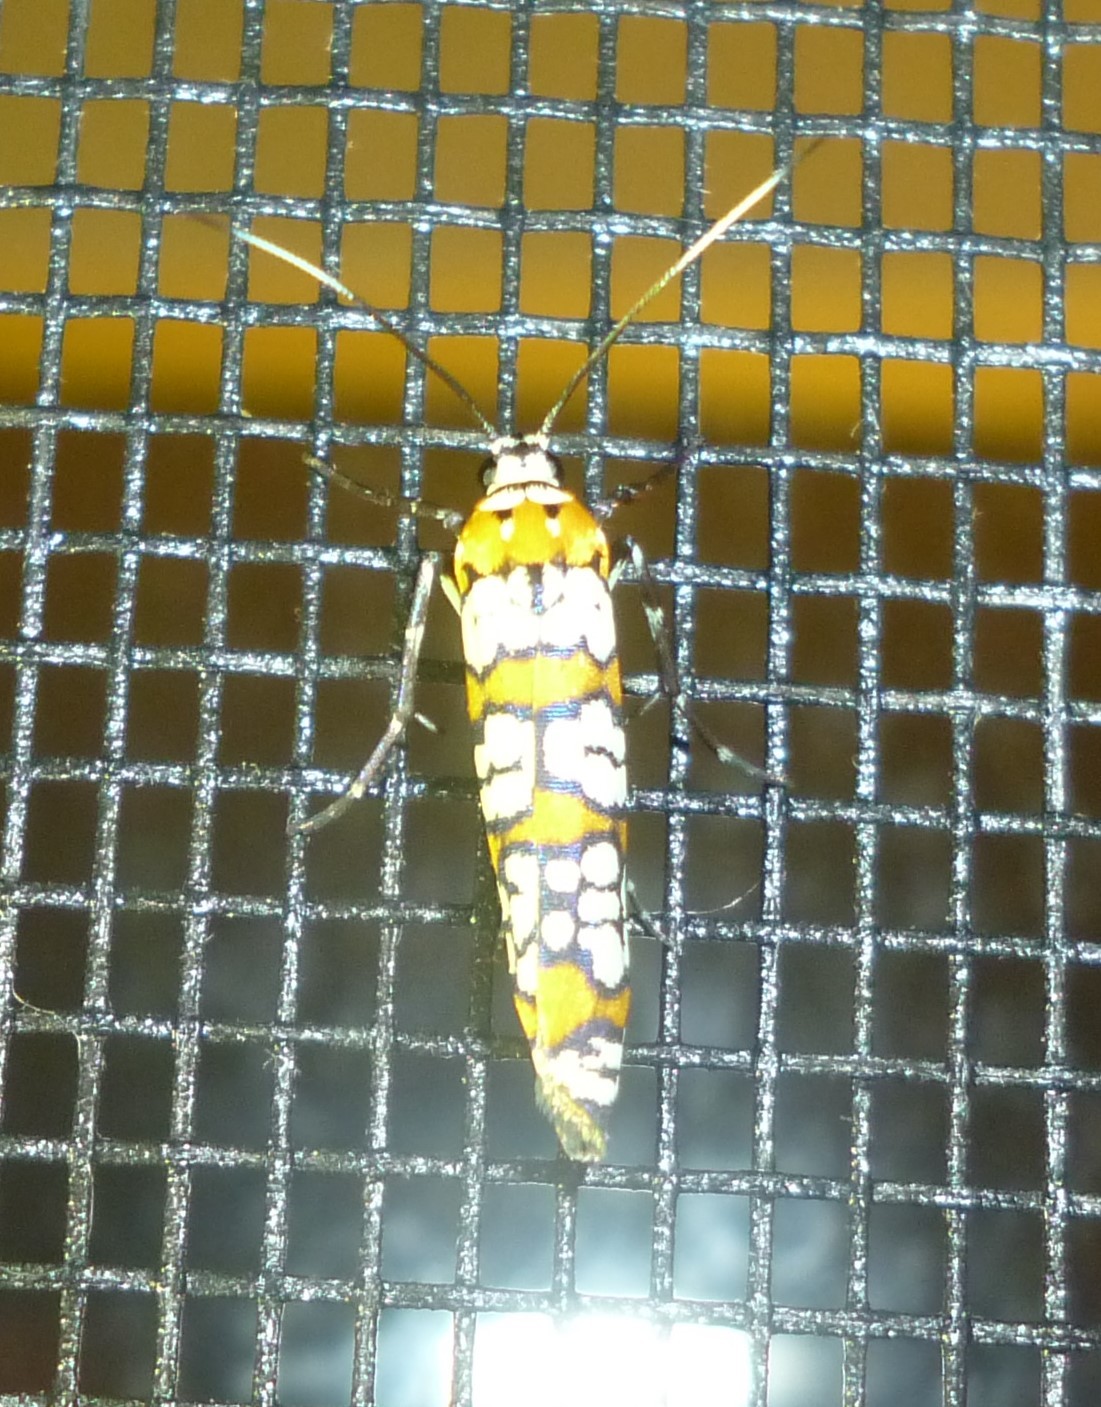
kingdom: Animalia
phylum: Arthropoda
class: Insecta
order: Lepidoptera
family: Attevidae
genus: Atteva
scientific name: Atteva punctella
